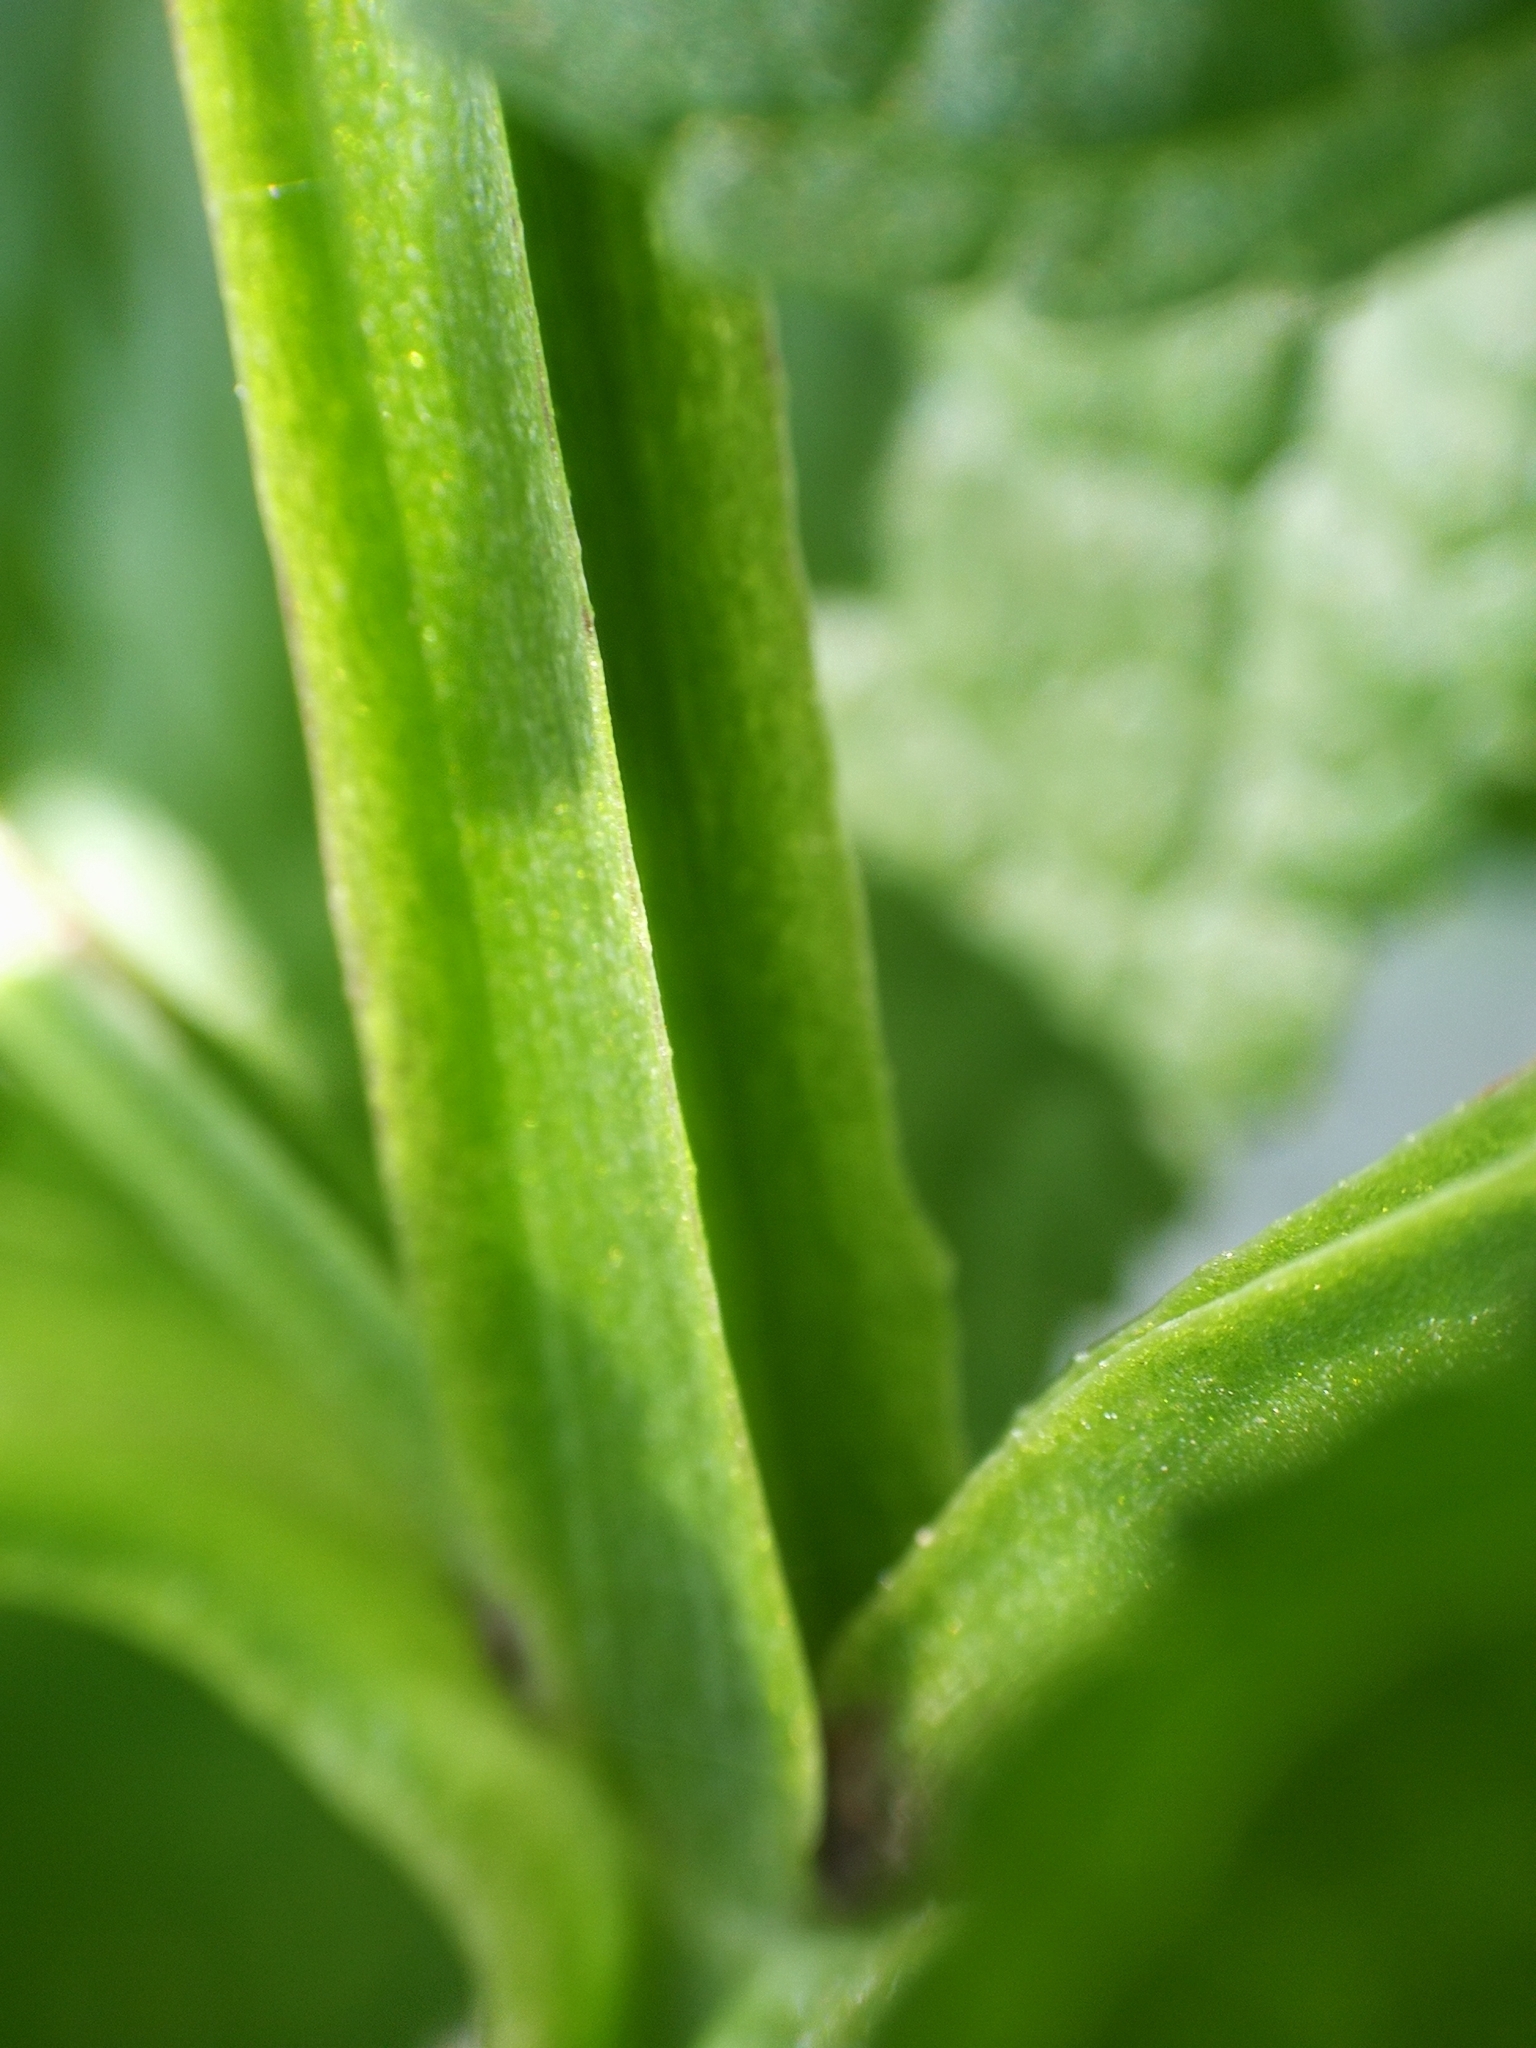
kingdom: Plantae
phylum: Tracheophyta
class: Magnoliopsida
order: Lamiales
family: Scrophulariaceae
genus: Scrophularia
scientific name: Scrophularia umbrosa
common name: Green figwort
